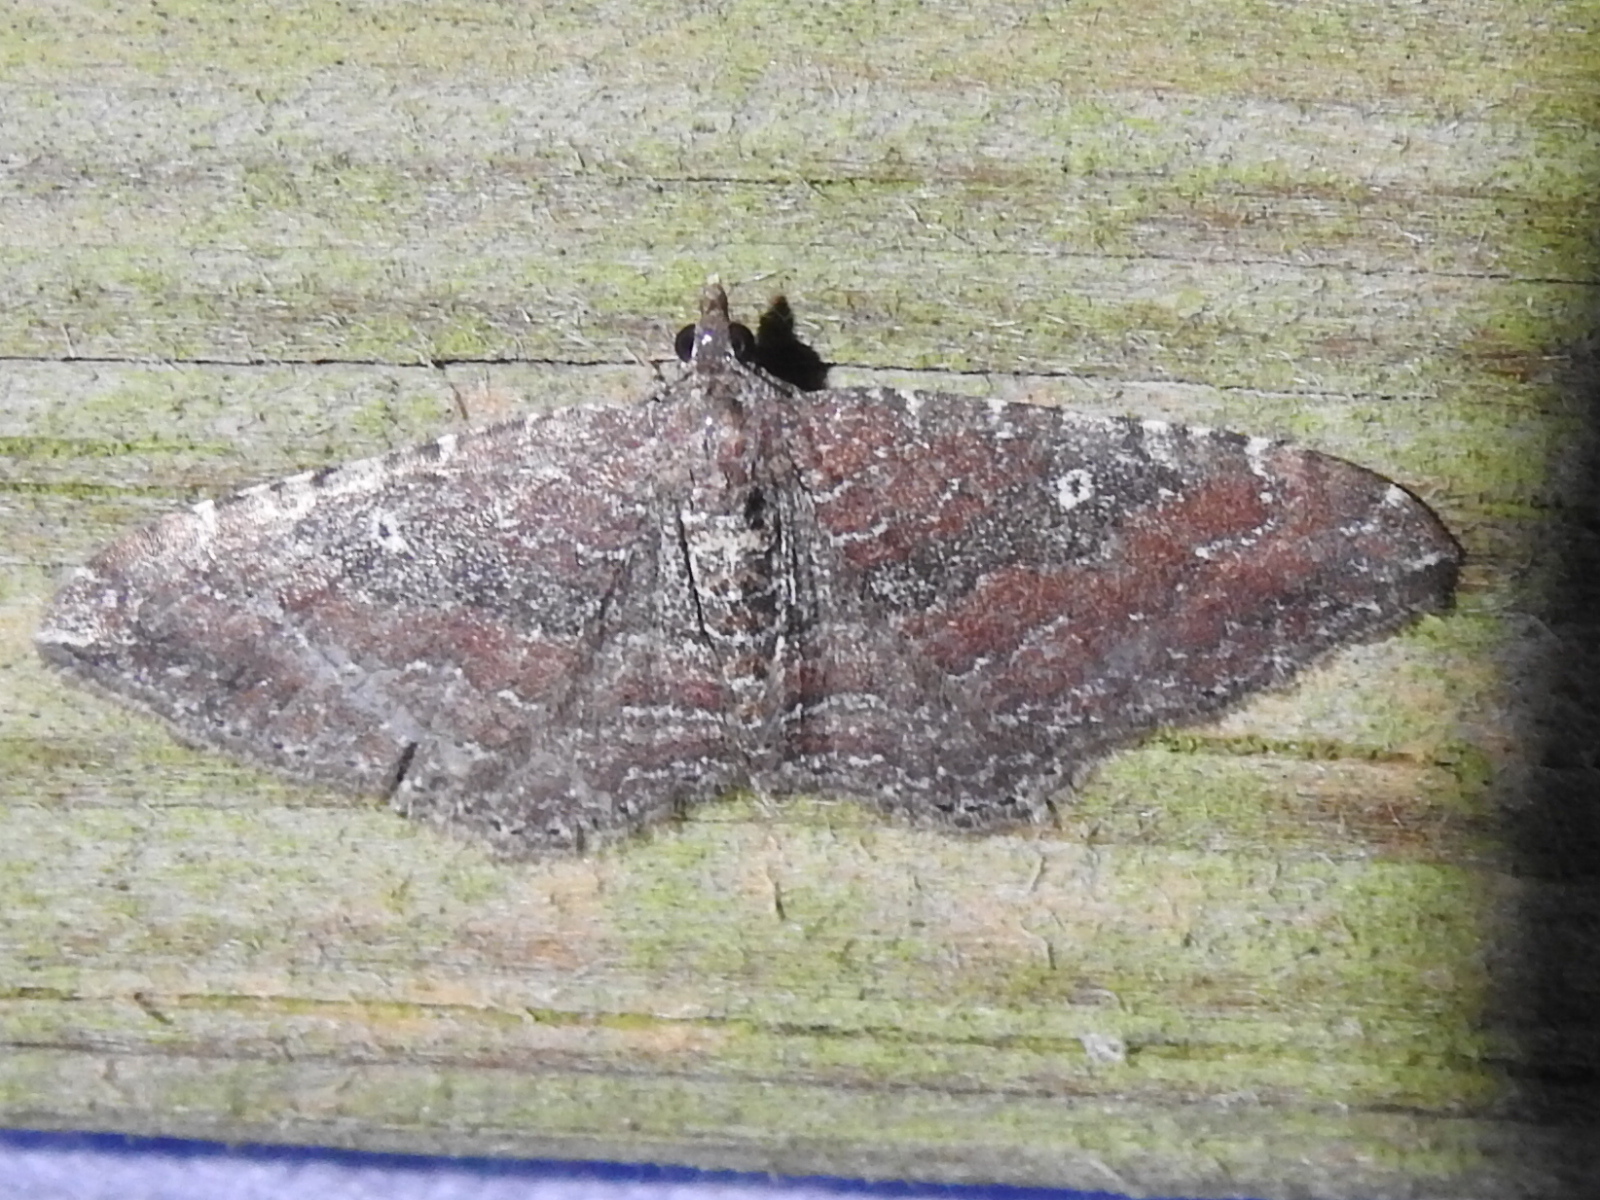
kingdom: Animalia
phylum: Arthropoda
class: Insecta
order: Lepidoptera
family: Geometridae
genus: Orthonama
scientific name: Orthonama obstipata
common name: The gem
